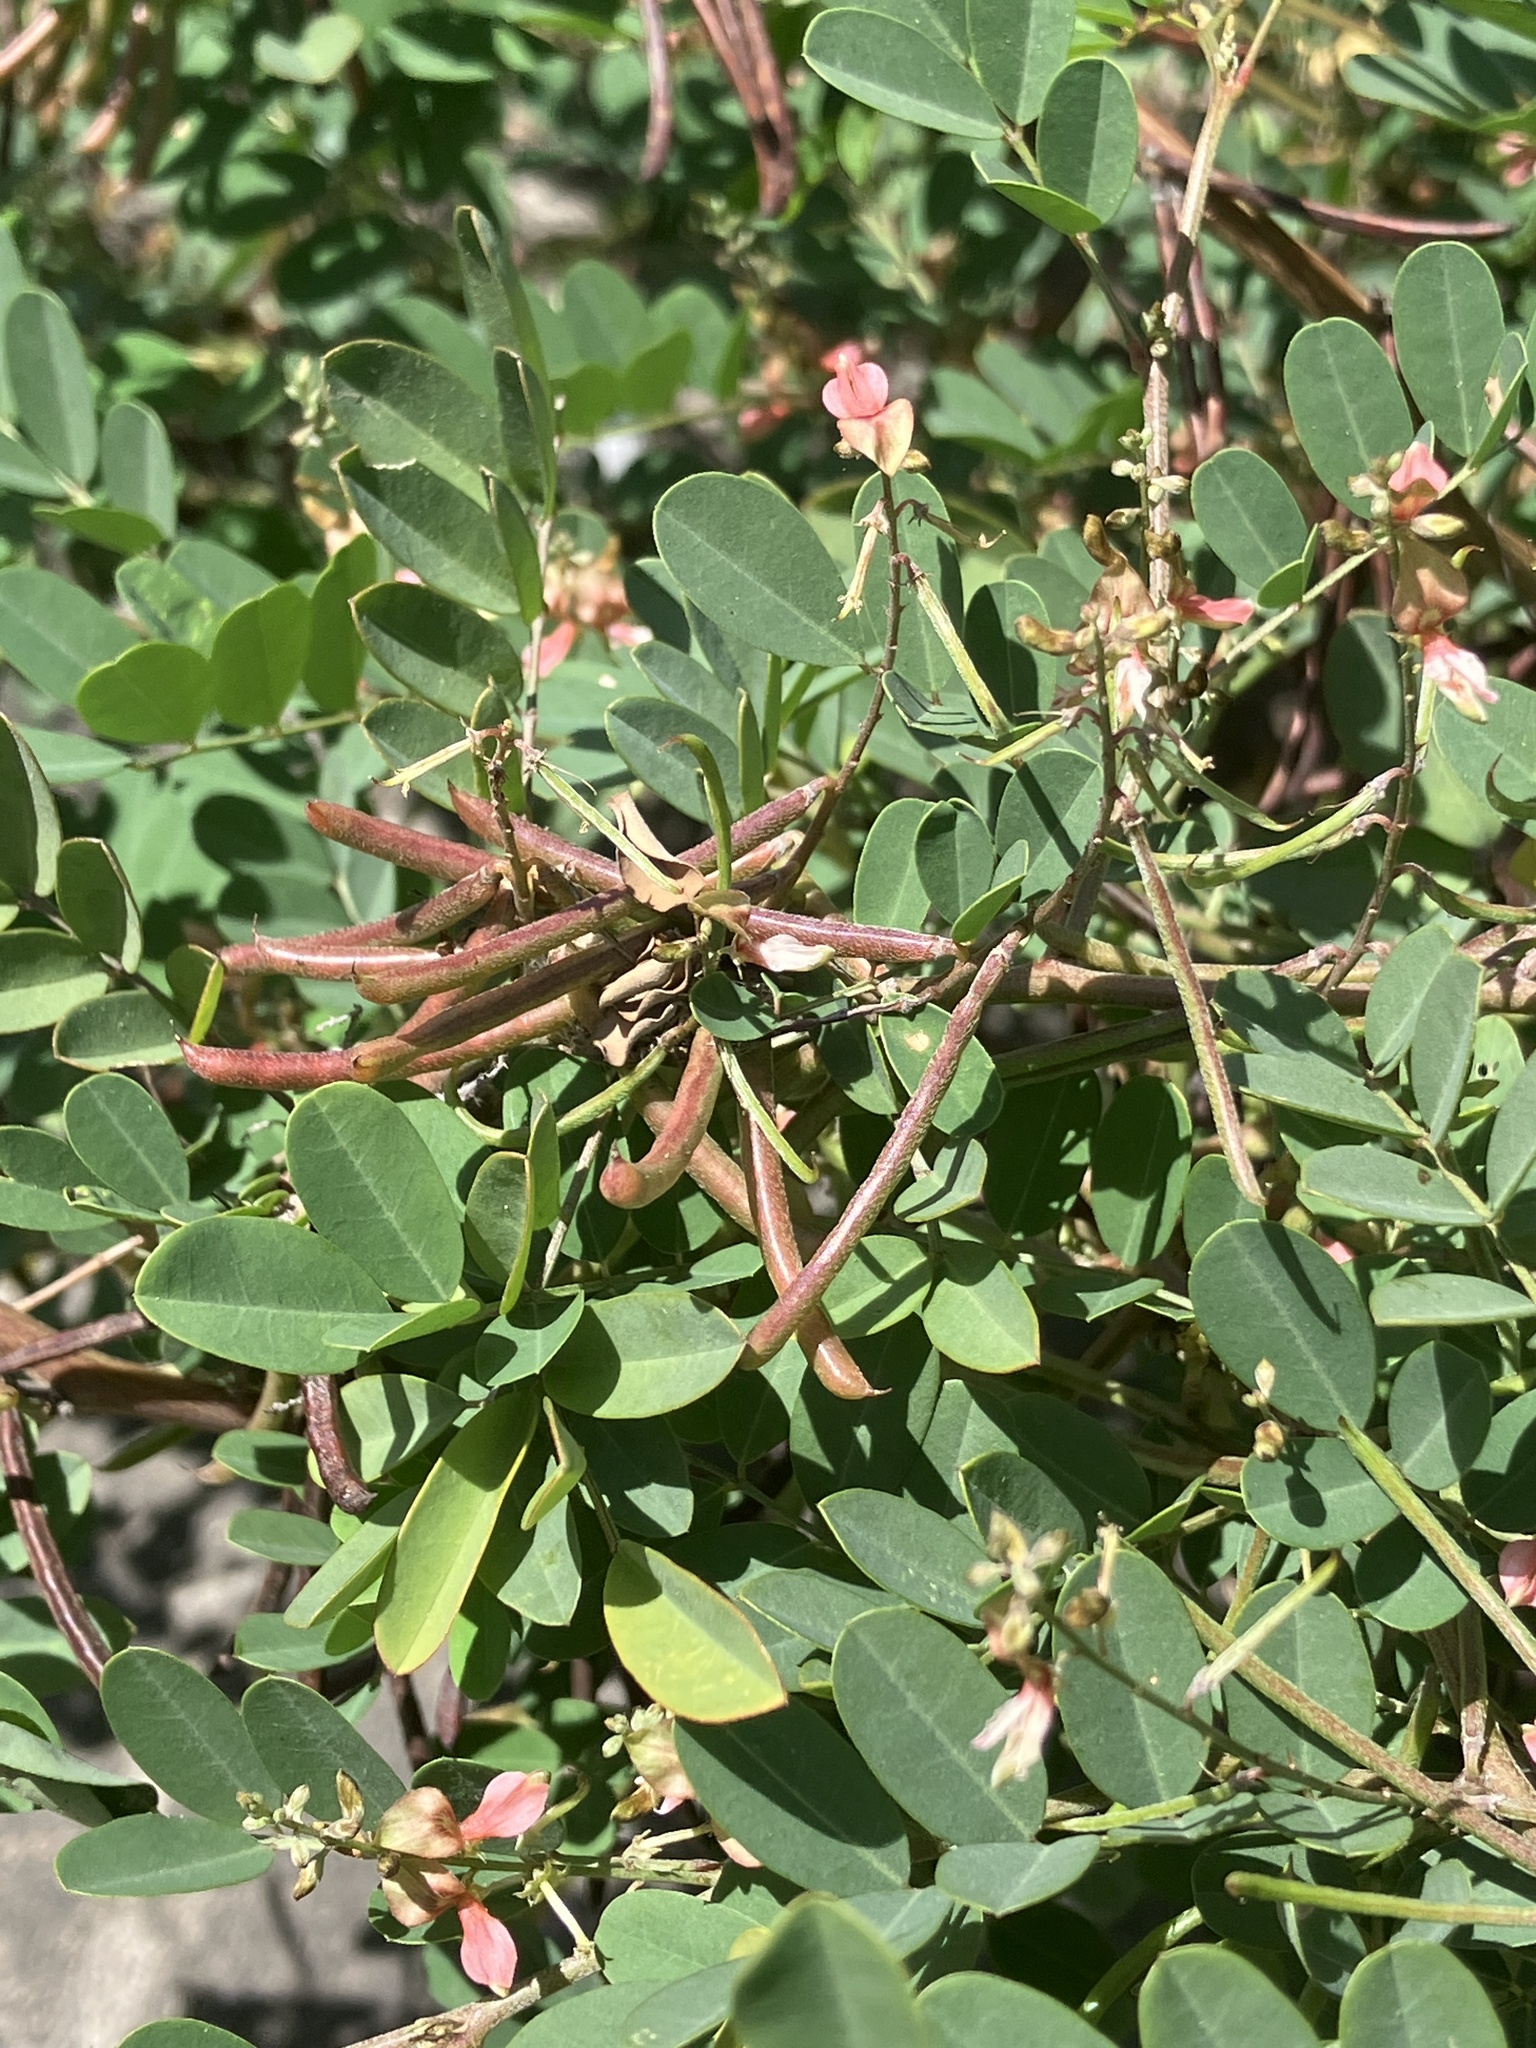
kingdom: Plantae
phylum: Tracheophyta
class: Magnoliopsida
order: Fabales
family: Fabaceae
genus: Indigofera
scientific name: Indigofera tinctoria
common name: True indigo
